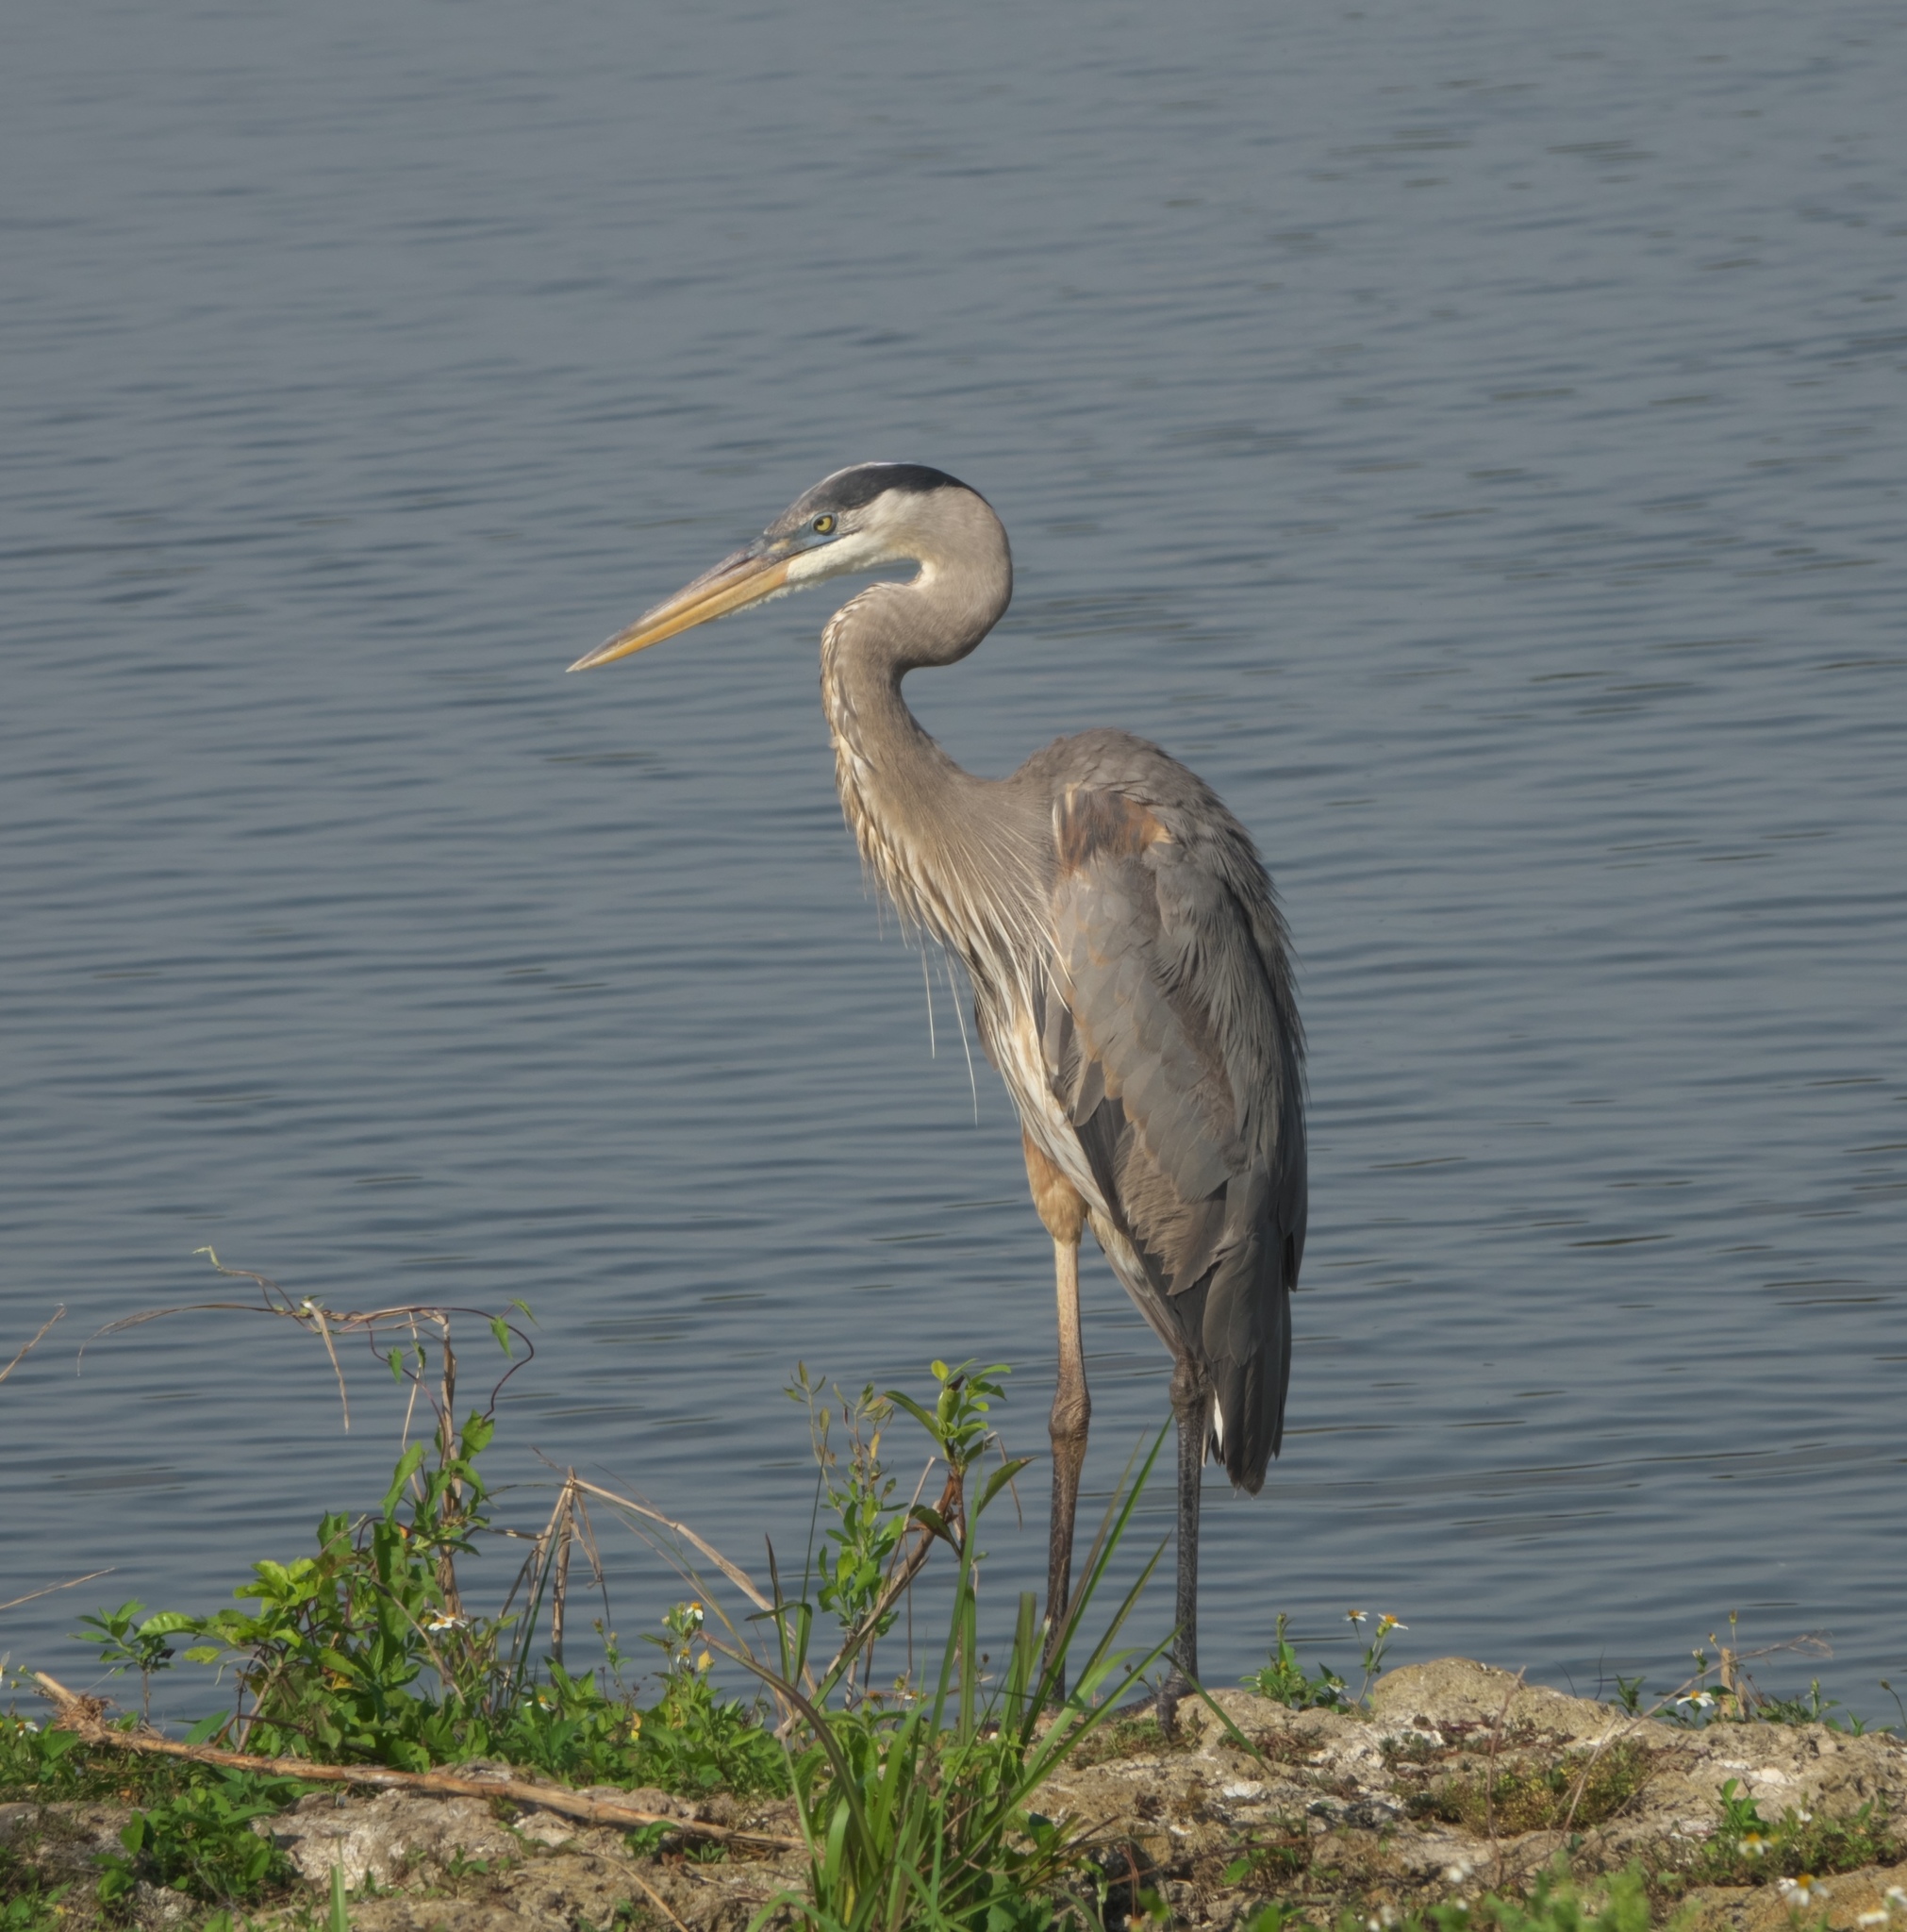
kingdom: Animalia
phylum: Chordata
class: Aves
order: Pelecaniformes
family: Ardeidae
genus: Ardea
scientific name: Ardea herodias
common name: Great blue heron
